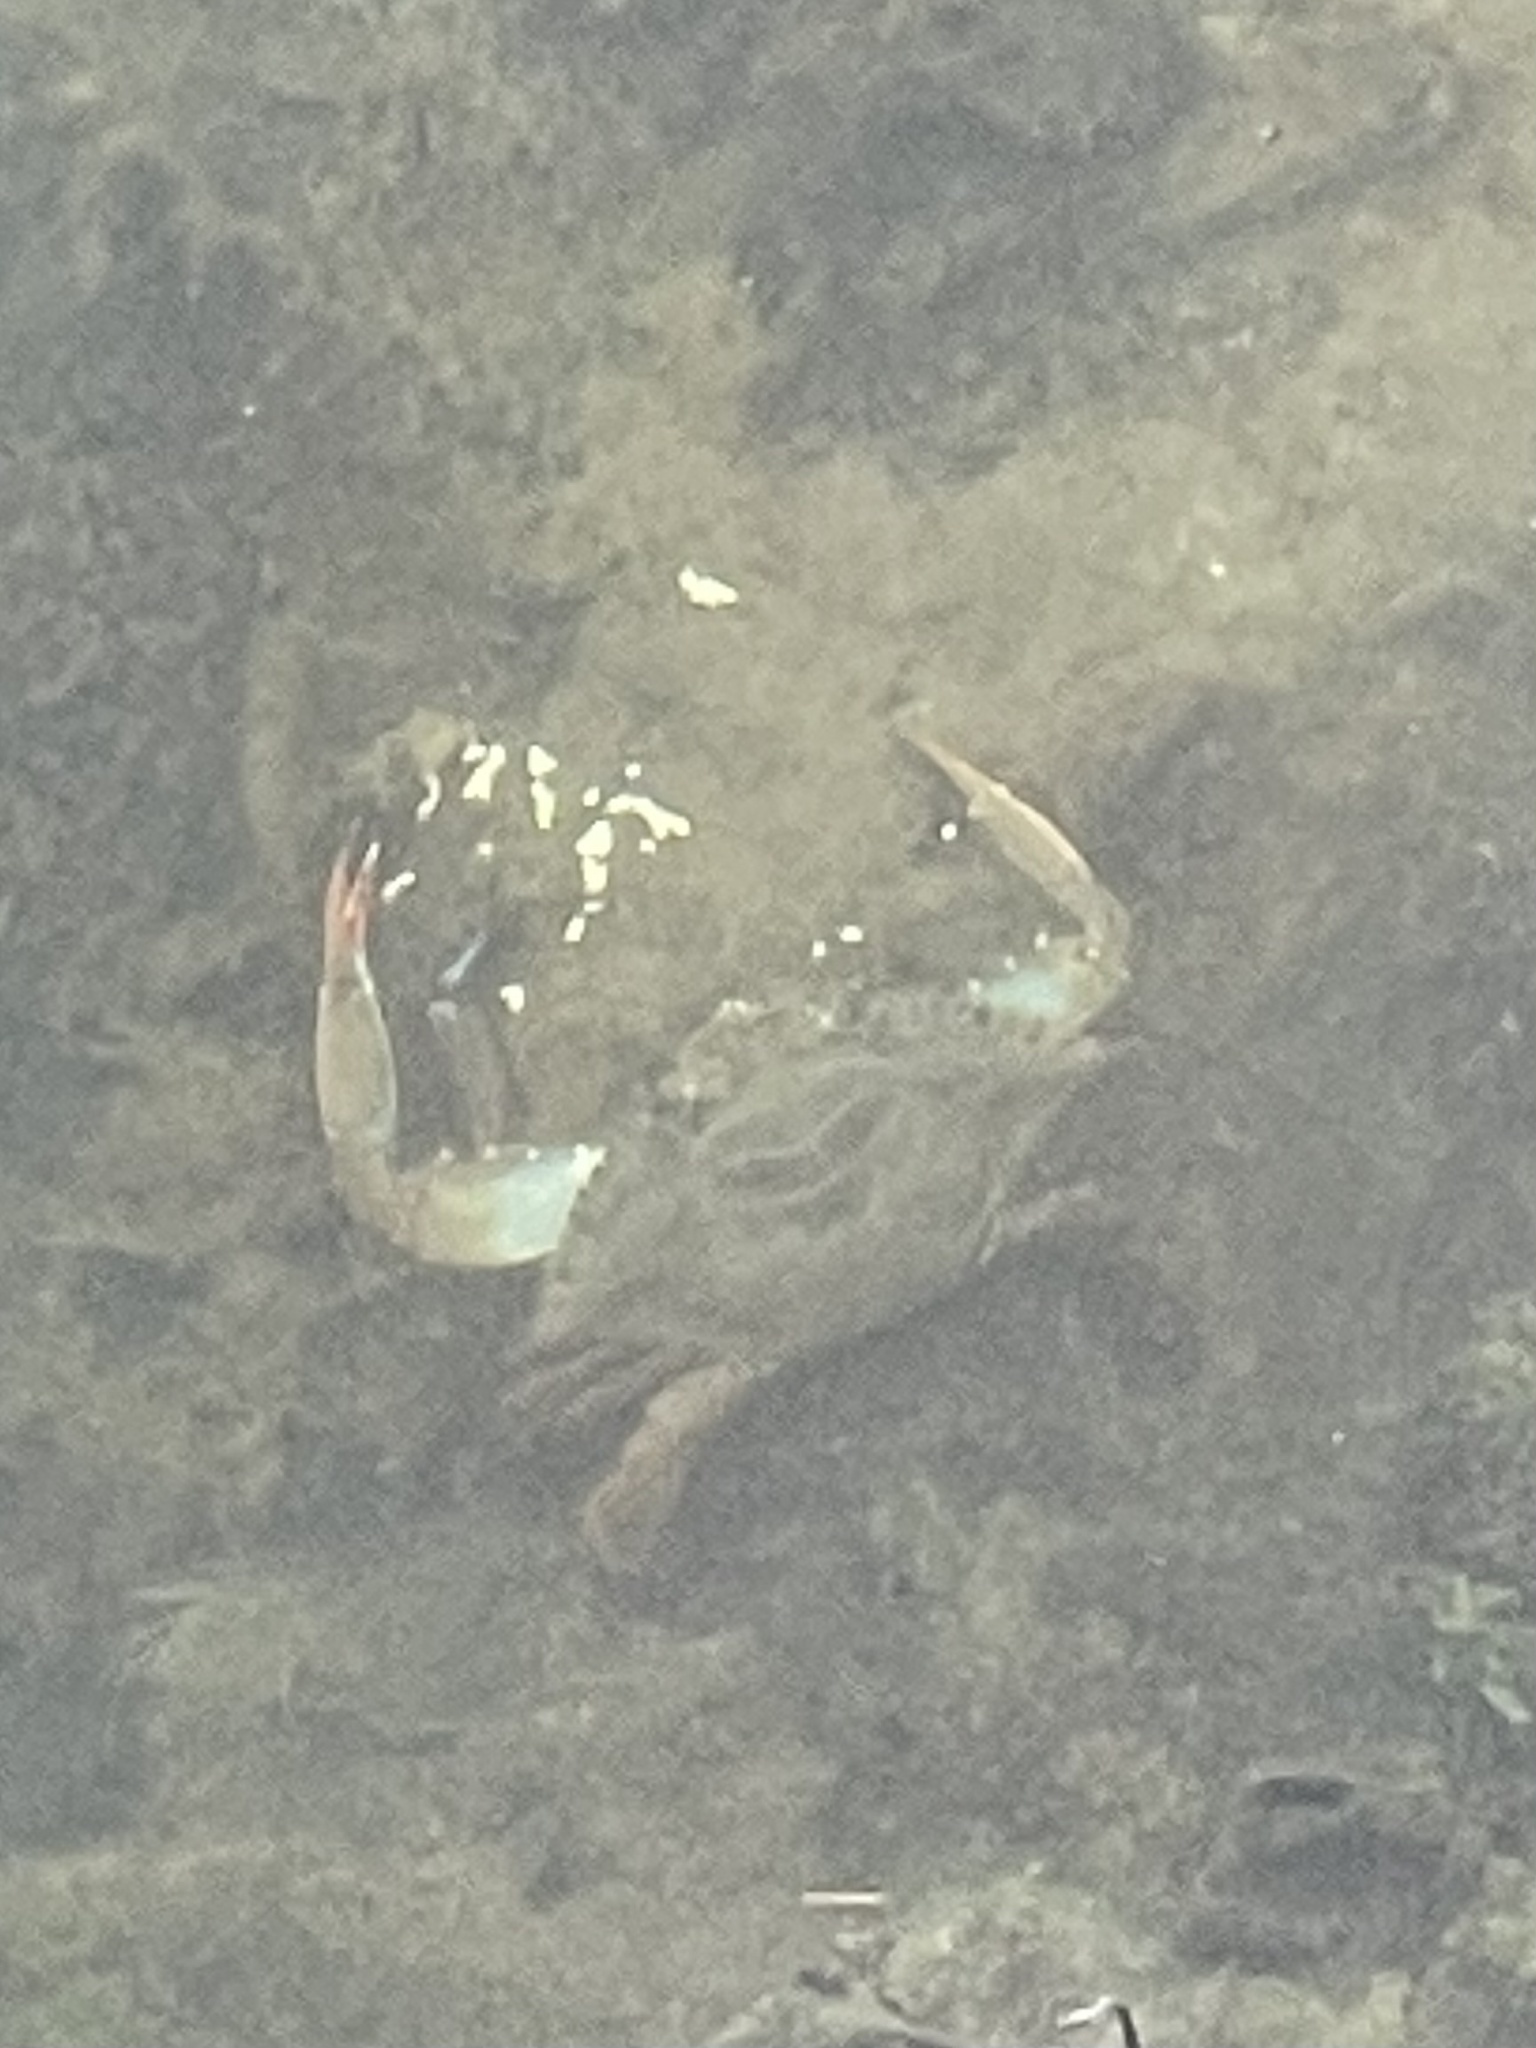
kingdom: Animalia
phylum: Arthropoda
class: Malacostraca
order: Decapoda
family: Portunidae
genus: Callinectes
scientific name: Callinectes sapidus
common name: Blue crab
